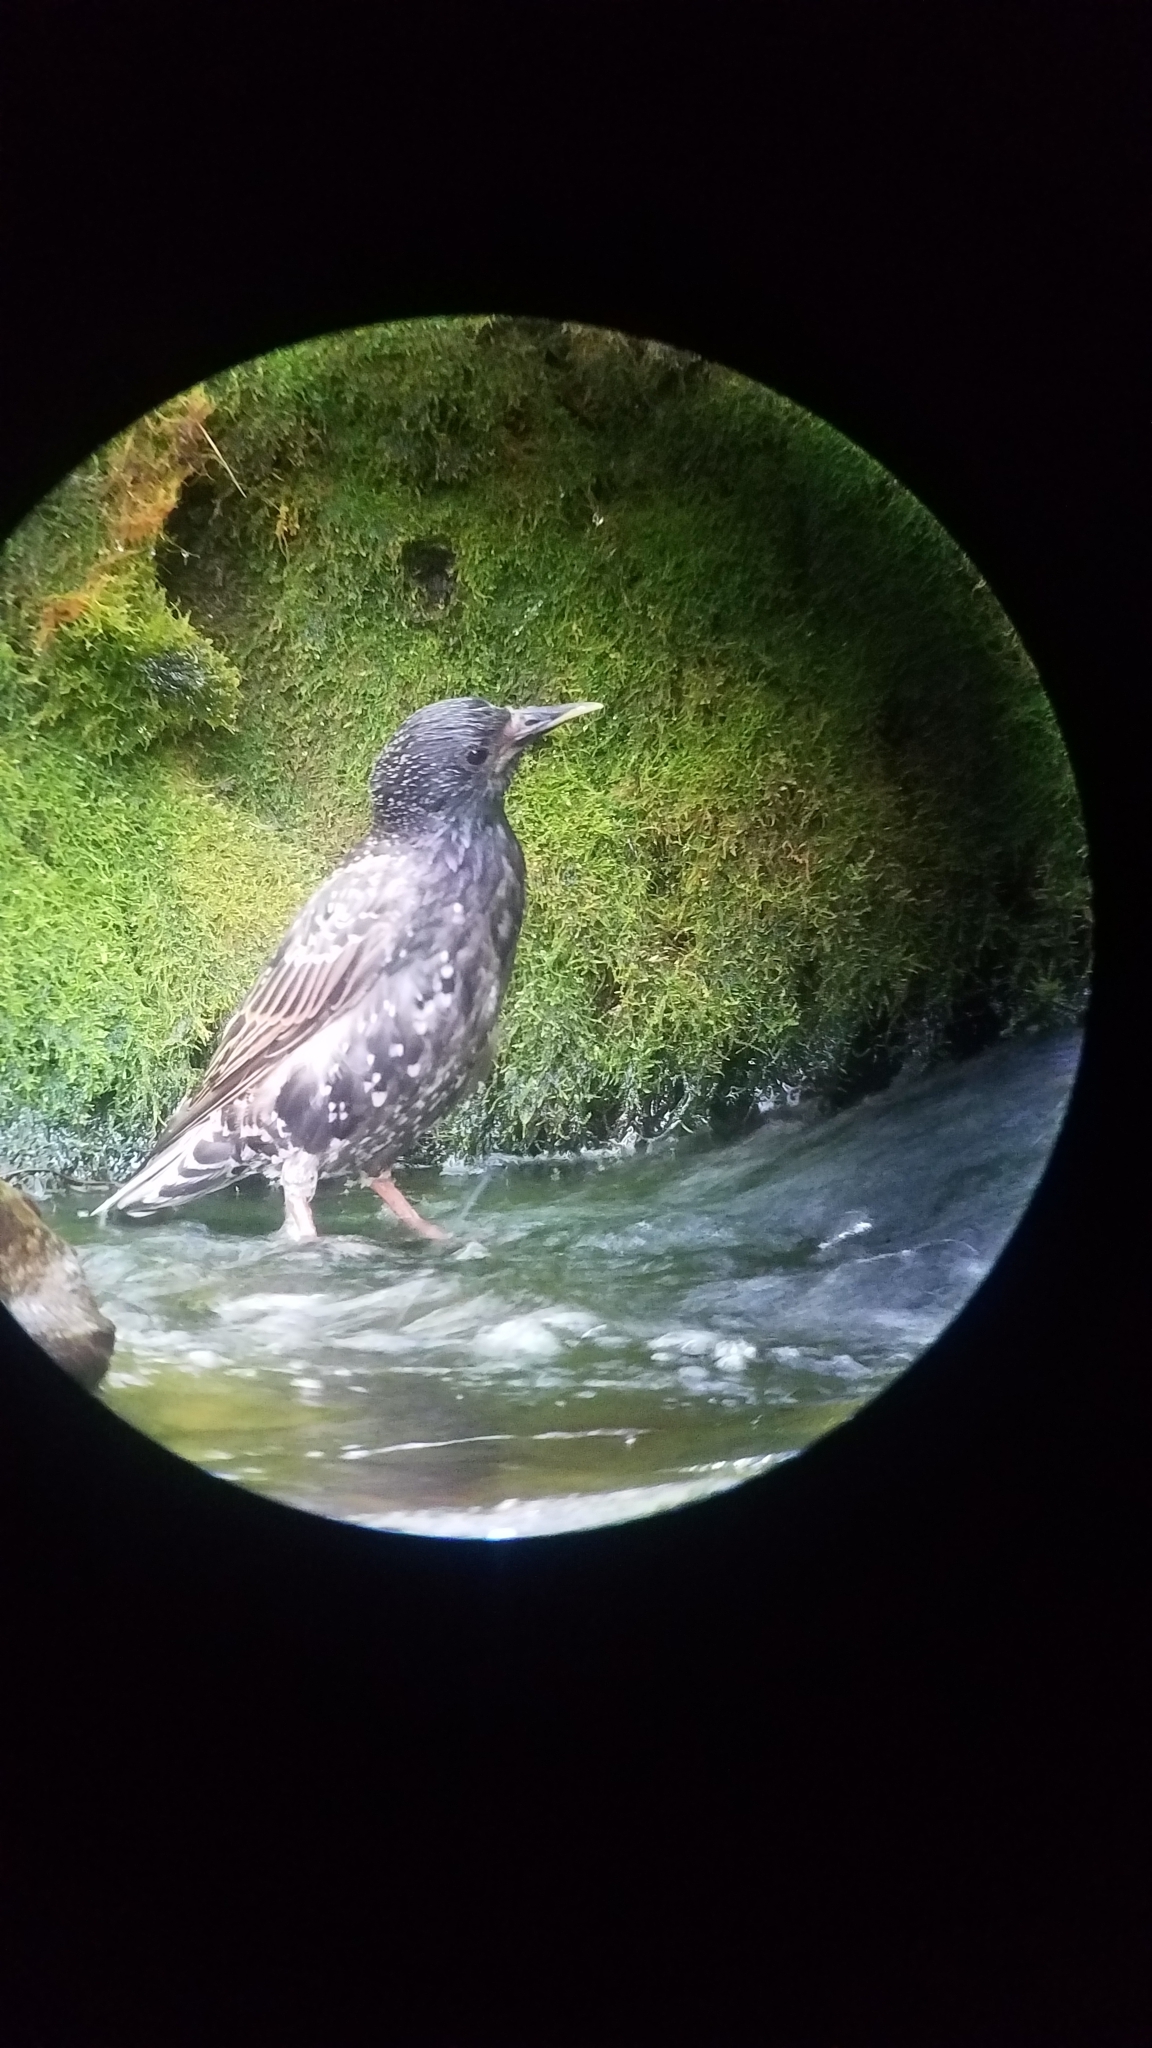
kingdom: Animalia
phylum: Chordata
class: Aves
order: Passeriformes
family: Sturnidae
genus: Sturnus
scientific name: Sturnus vulgaris
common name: Common starling
